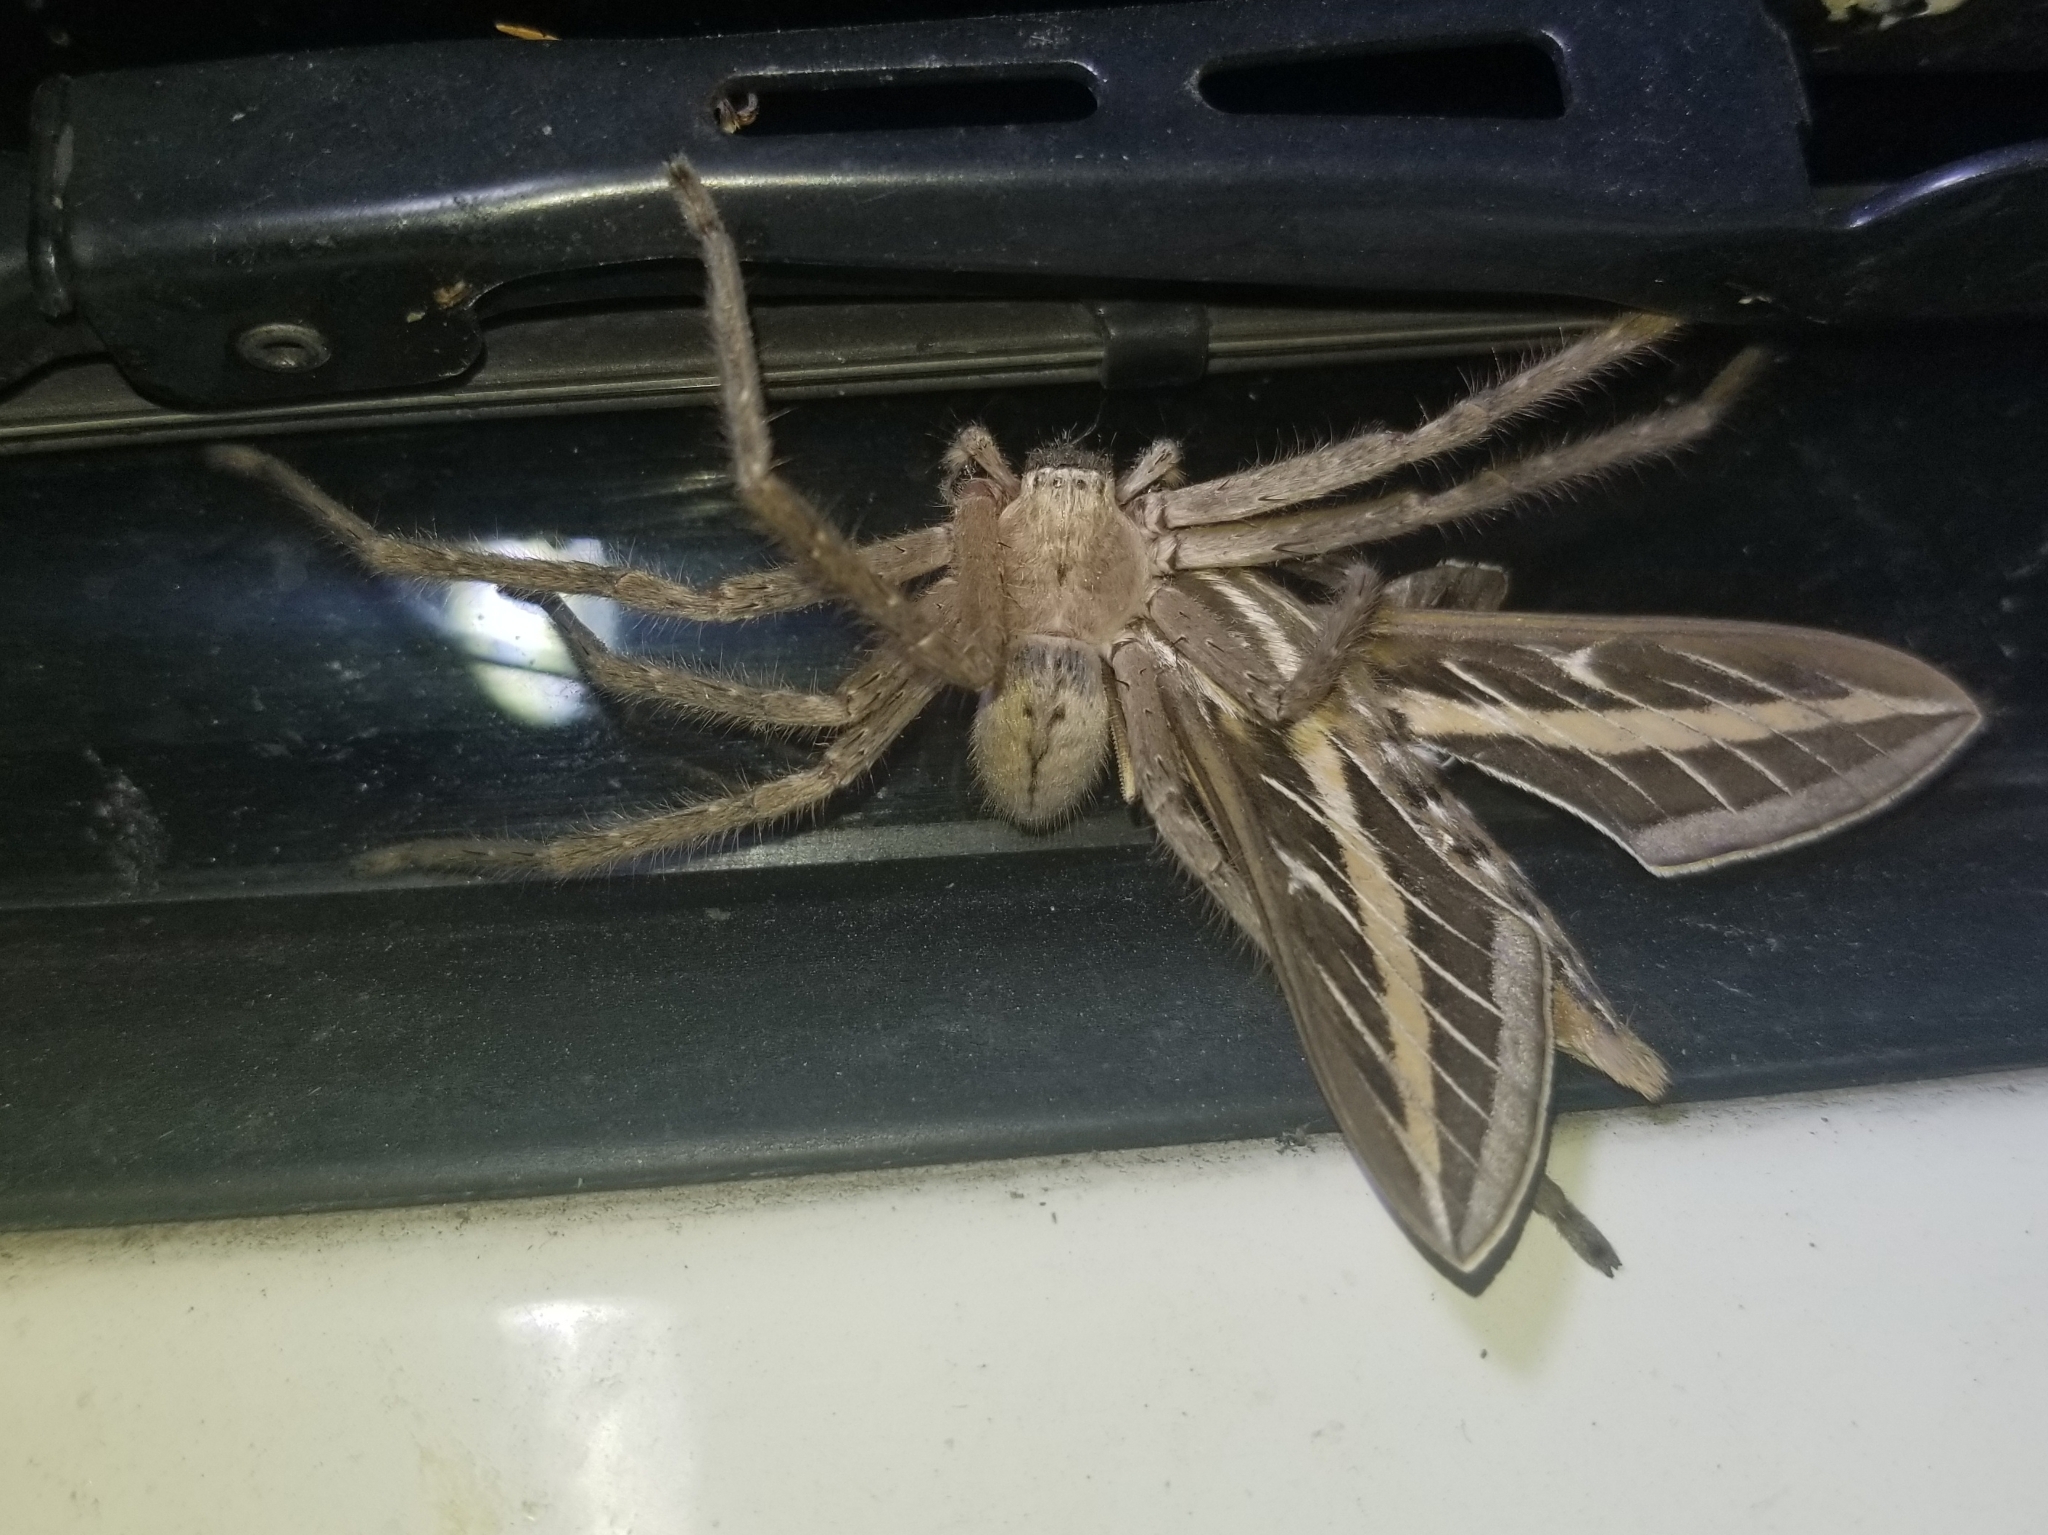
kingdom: Animalia
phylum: Arthropoda
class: Arachnida
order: Araneae
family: Sparassidae
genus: Olios
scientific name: Olios giganteus
